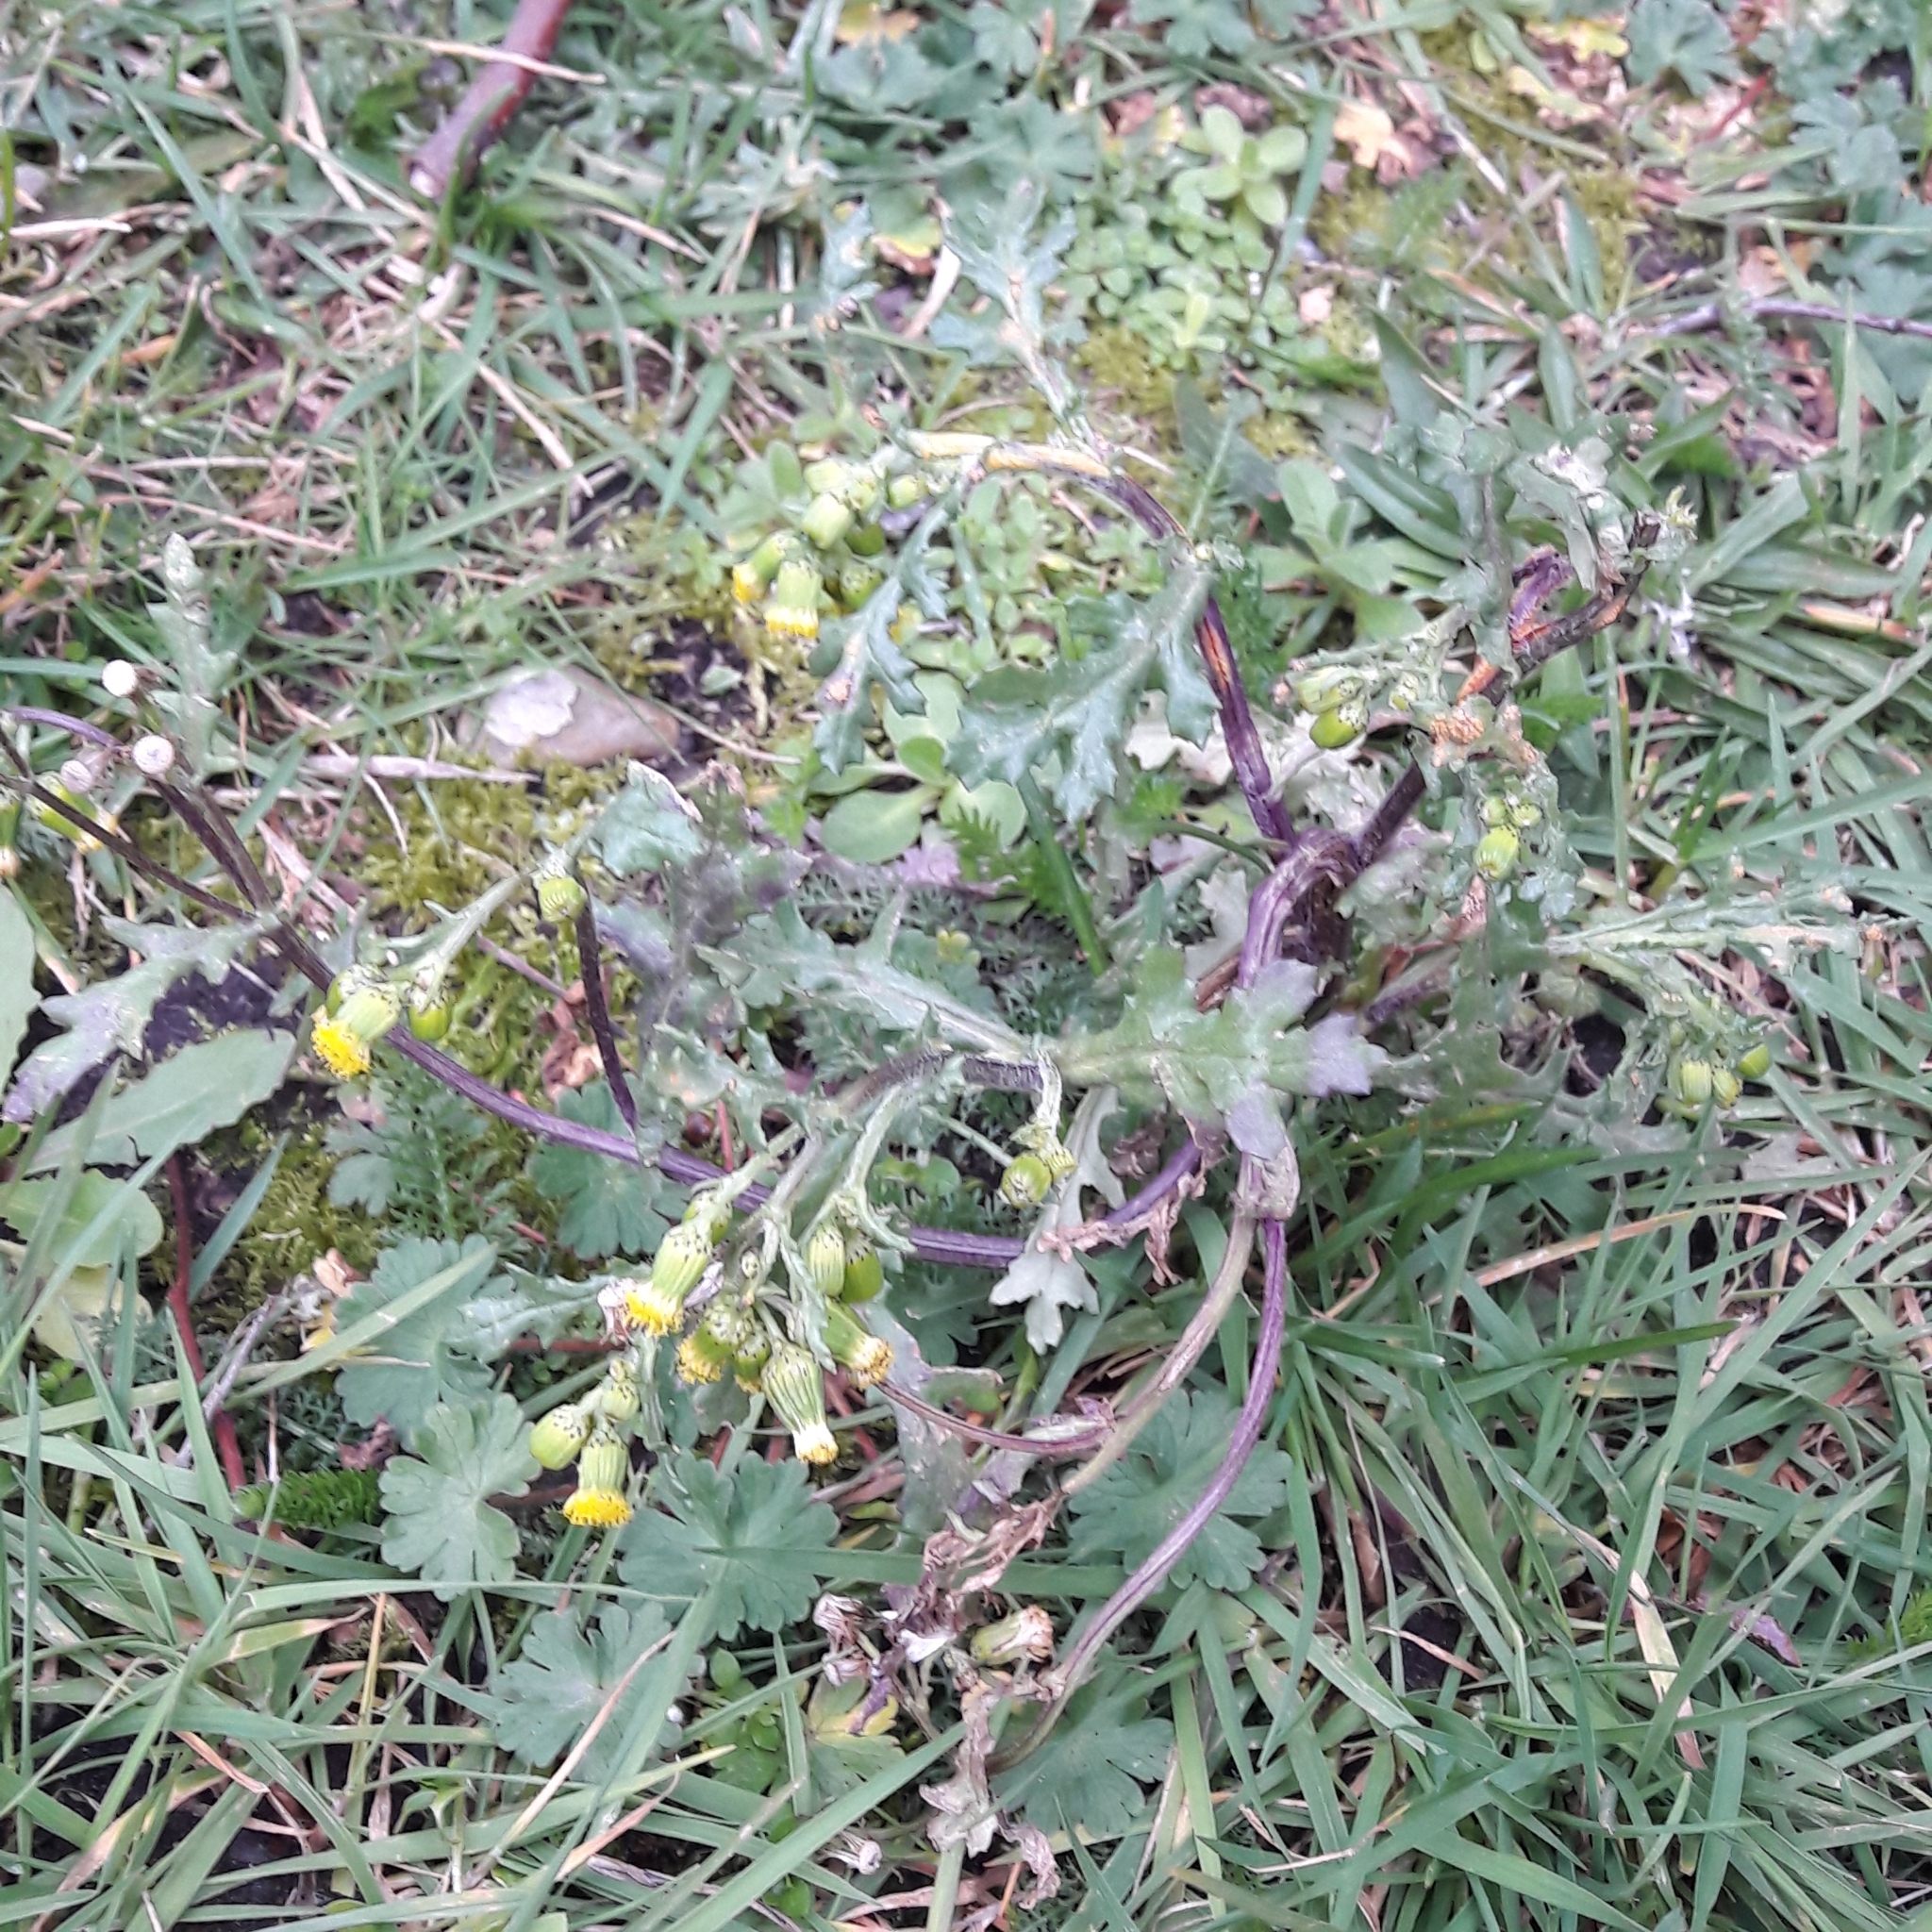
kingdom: Plantae
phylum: Tracheophyta
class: Magnoliopsida
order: Asterales
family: Asteraceae
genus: Senecio
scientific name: Senecio vulgaris
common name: Old-man-in-the-spring
